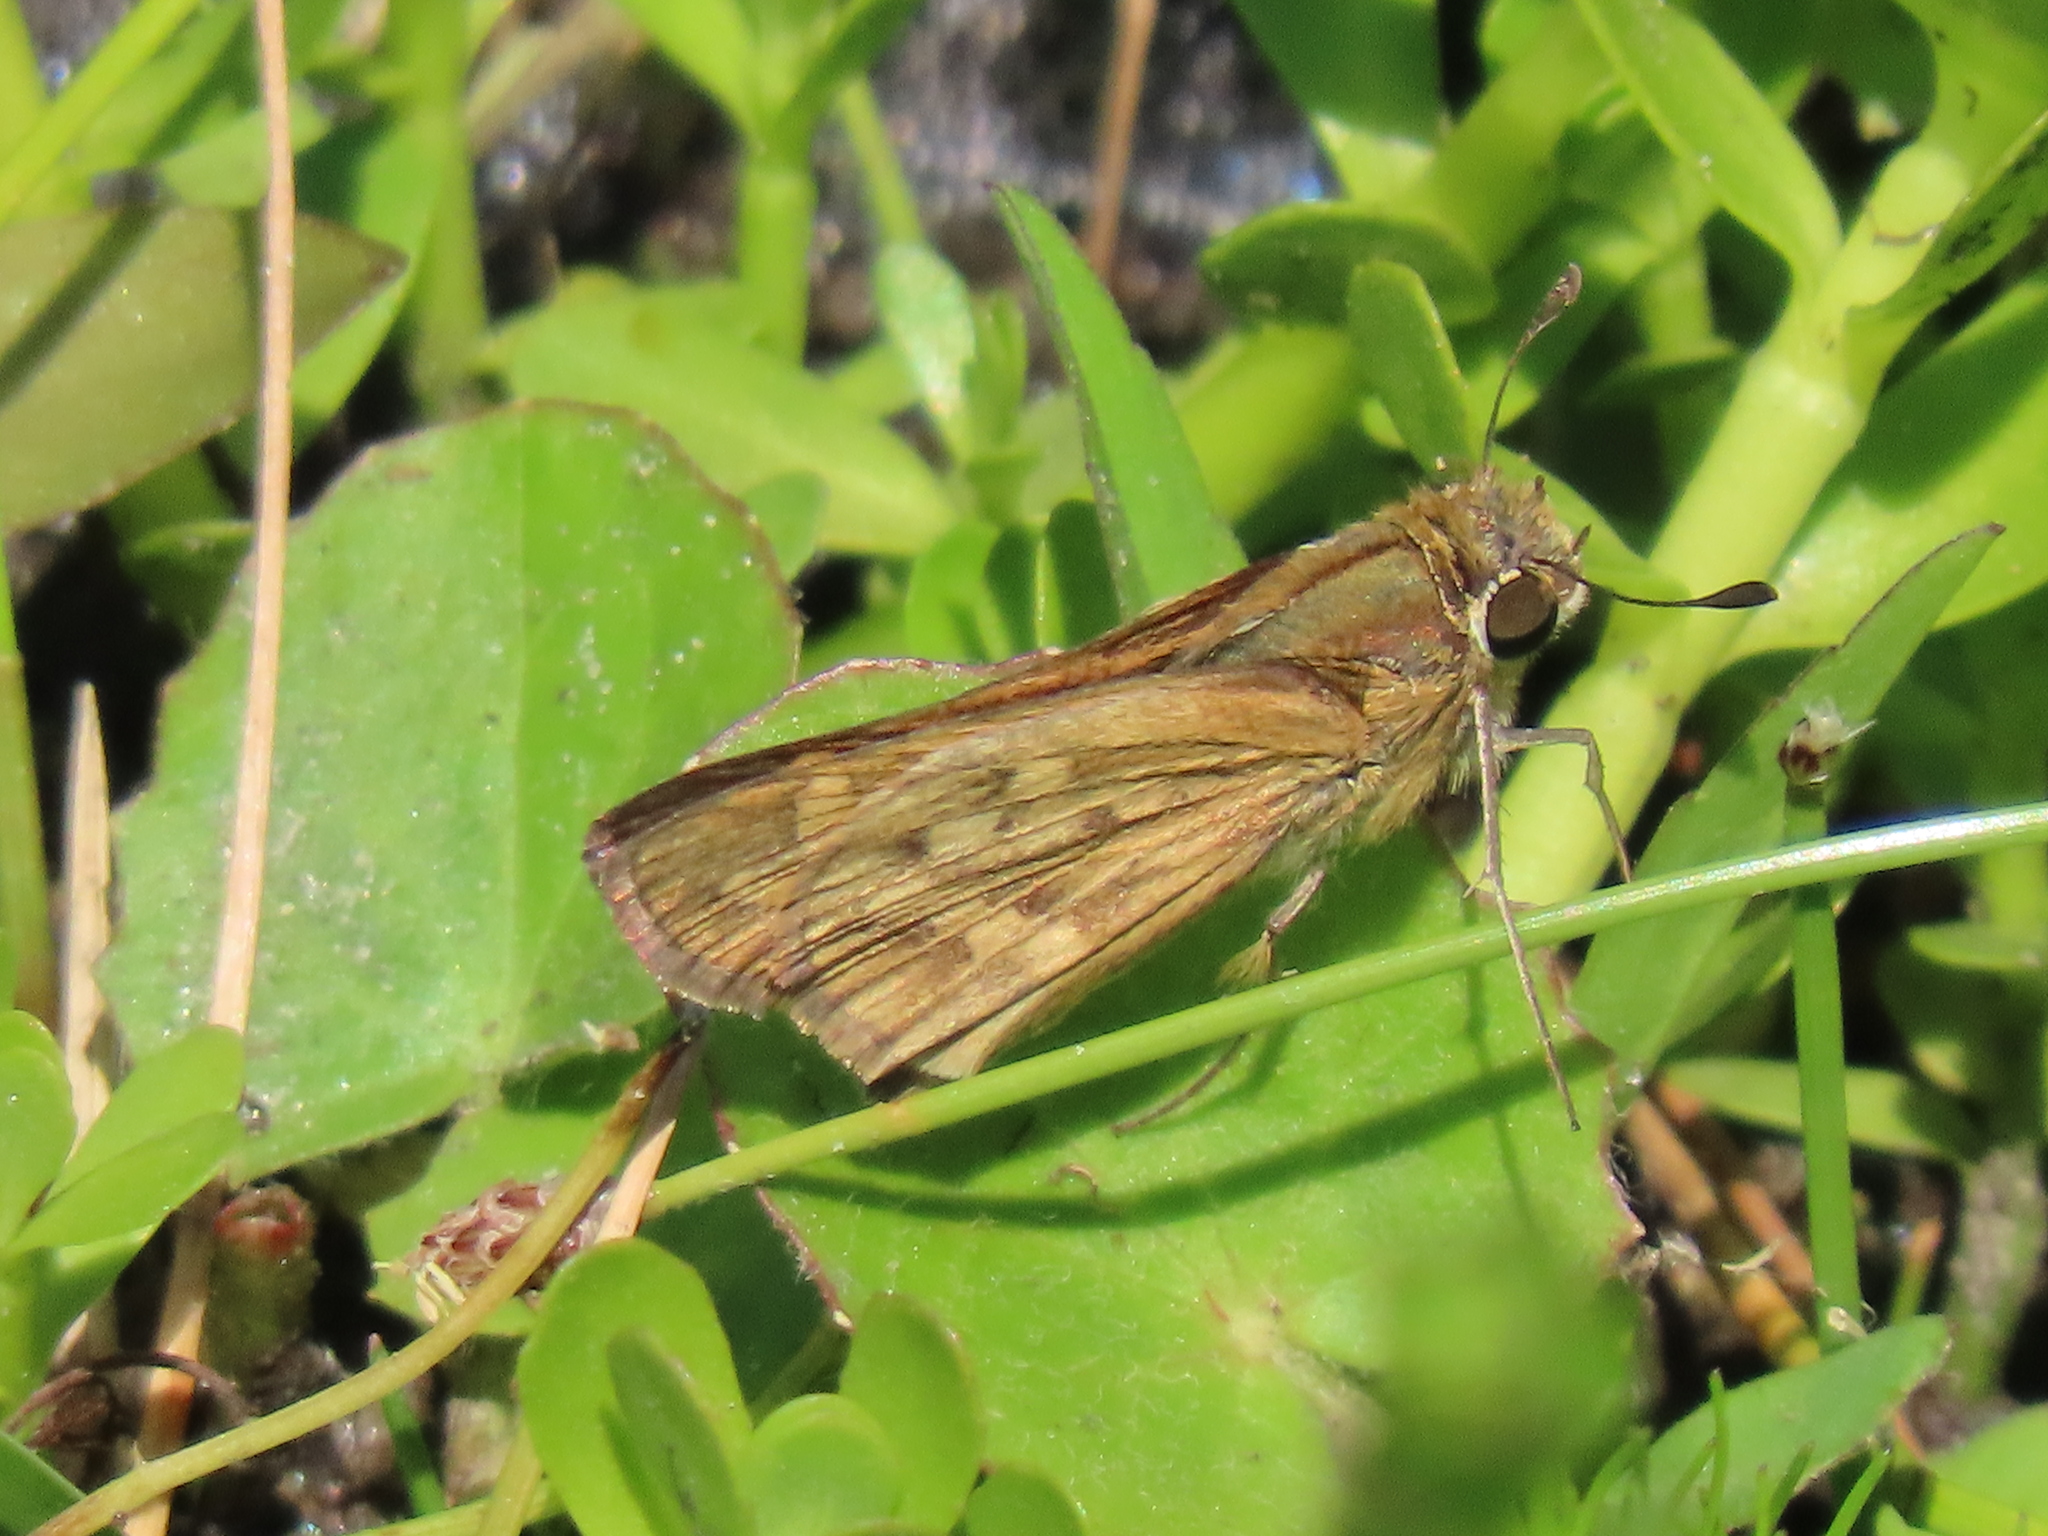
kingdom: Animalia
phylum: Arthropoda
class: Insecta
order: Lepidoptera
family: Hesperiidae
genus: Hylephila
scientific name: Hylephila phyleus
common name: Fiery skipper
